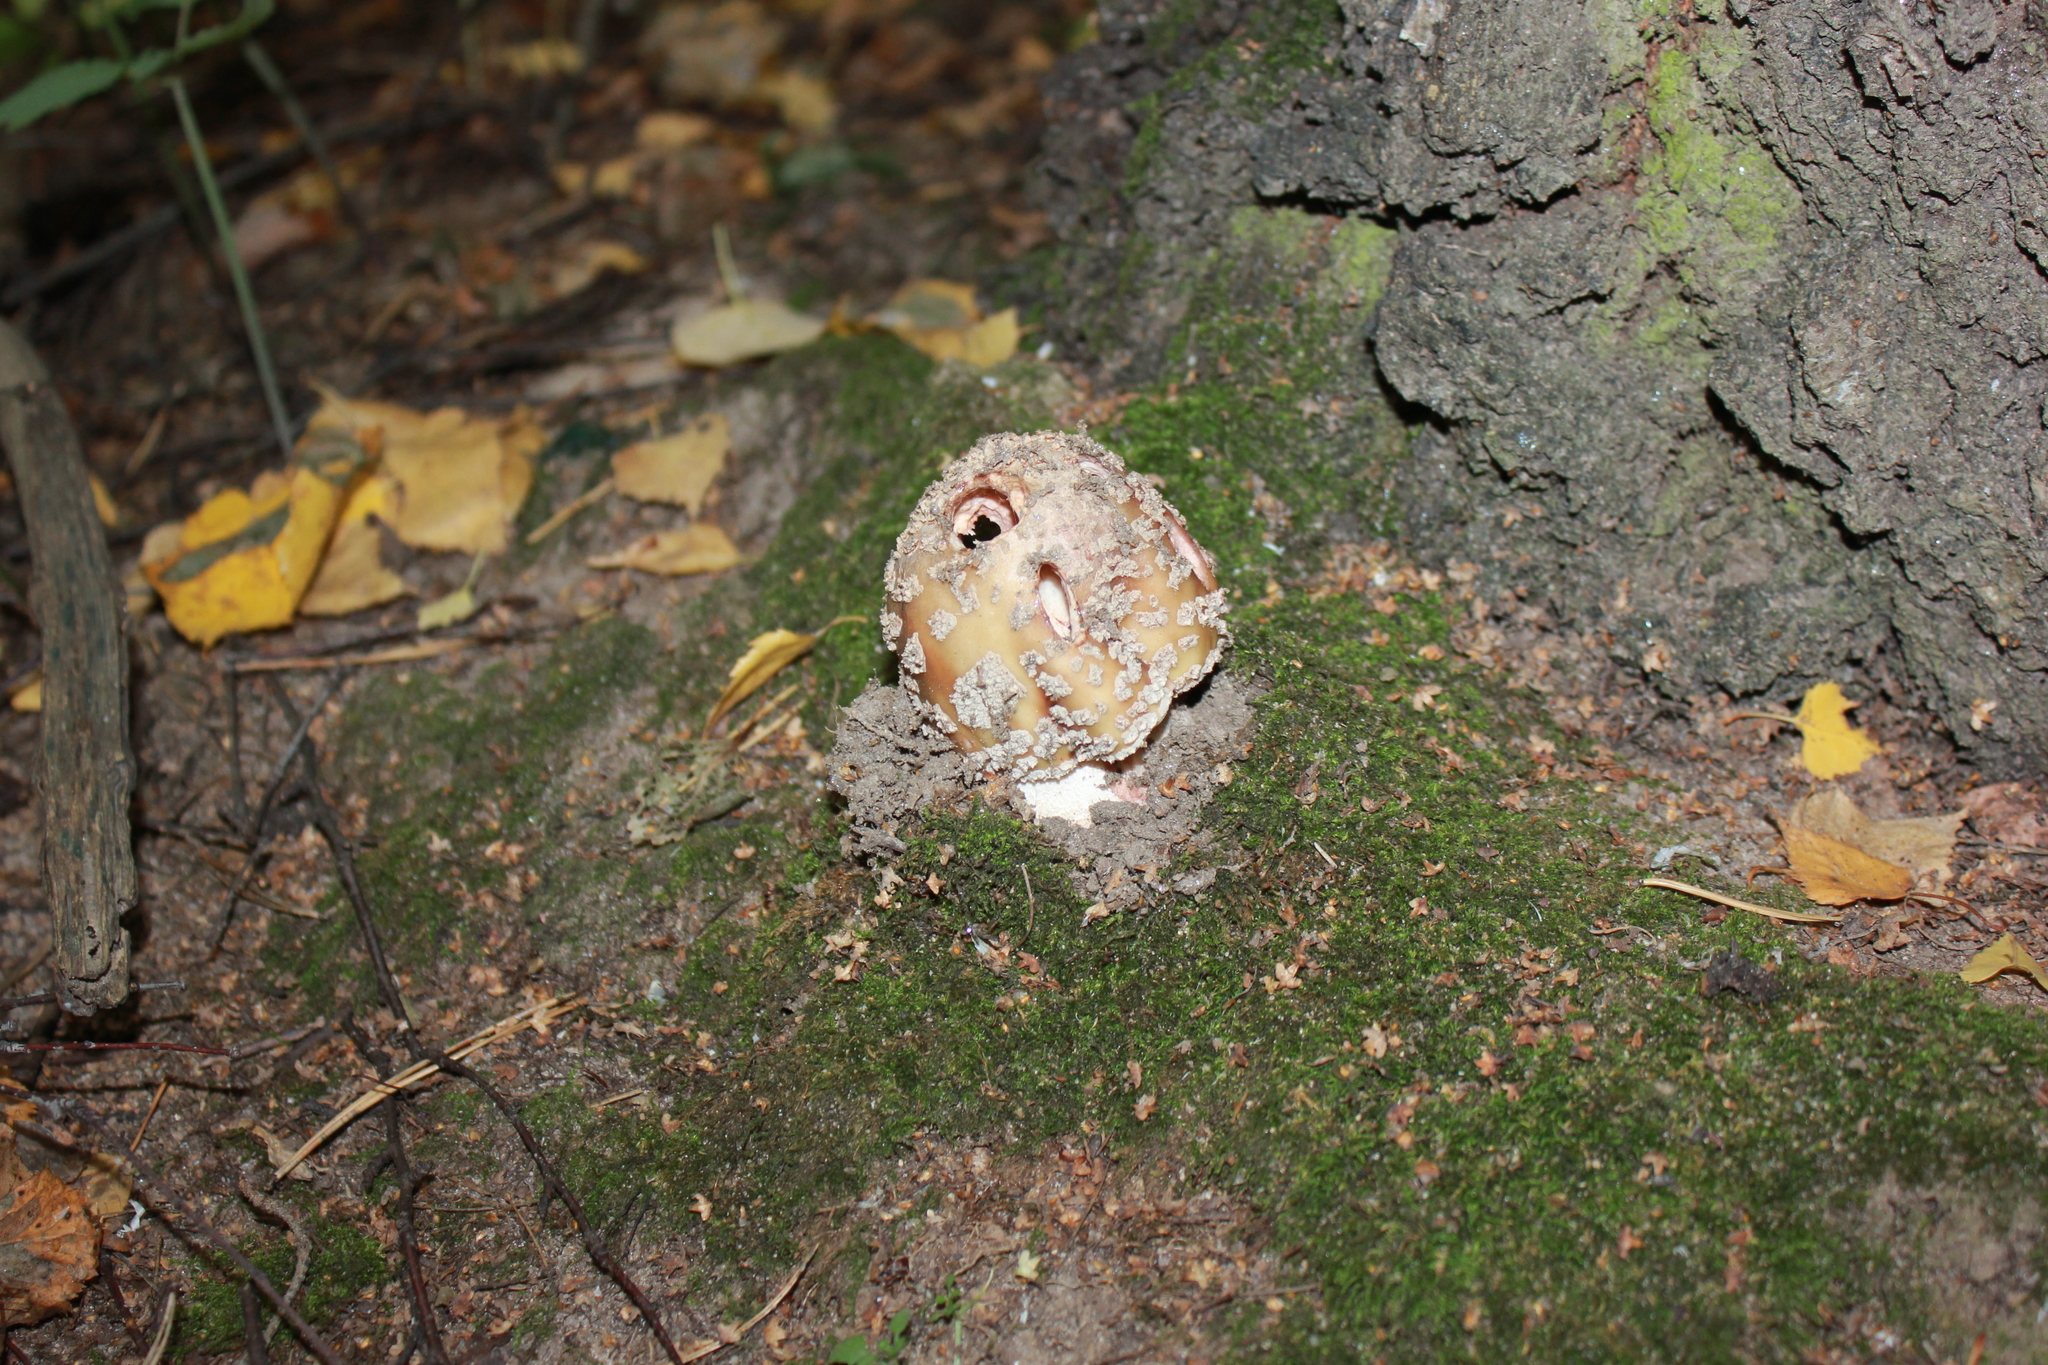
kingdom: Fungi
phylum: Basidiomycota
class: Agaricomycetes
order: Agaricales
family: Amanitaceae
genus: Amanita
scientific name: Amanita rubescens
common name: Blusher
